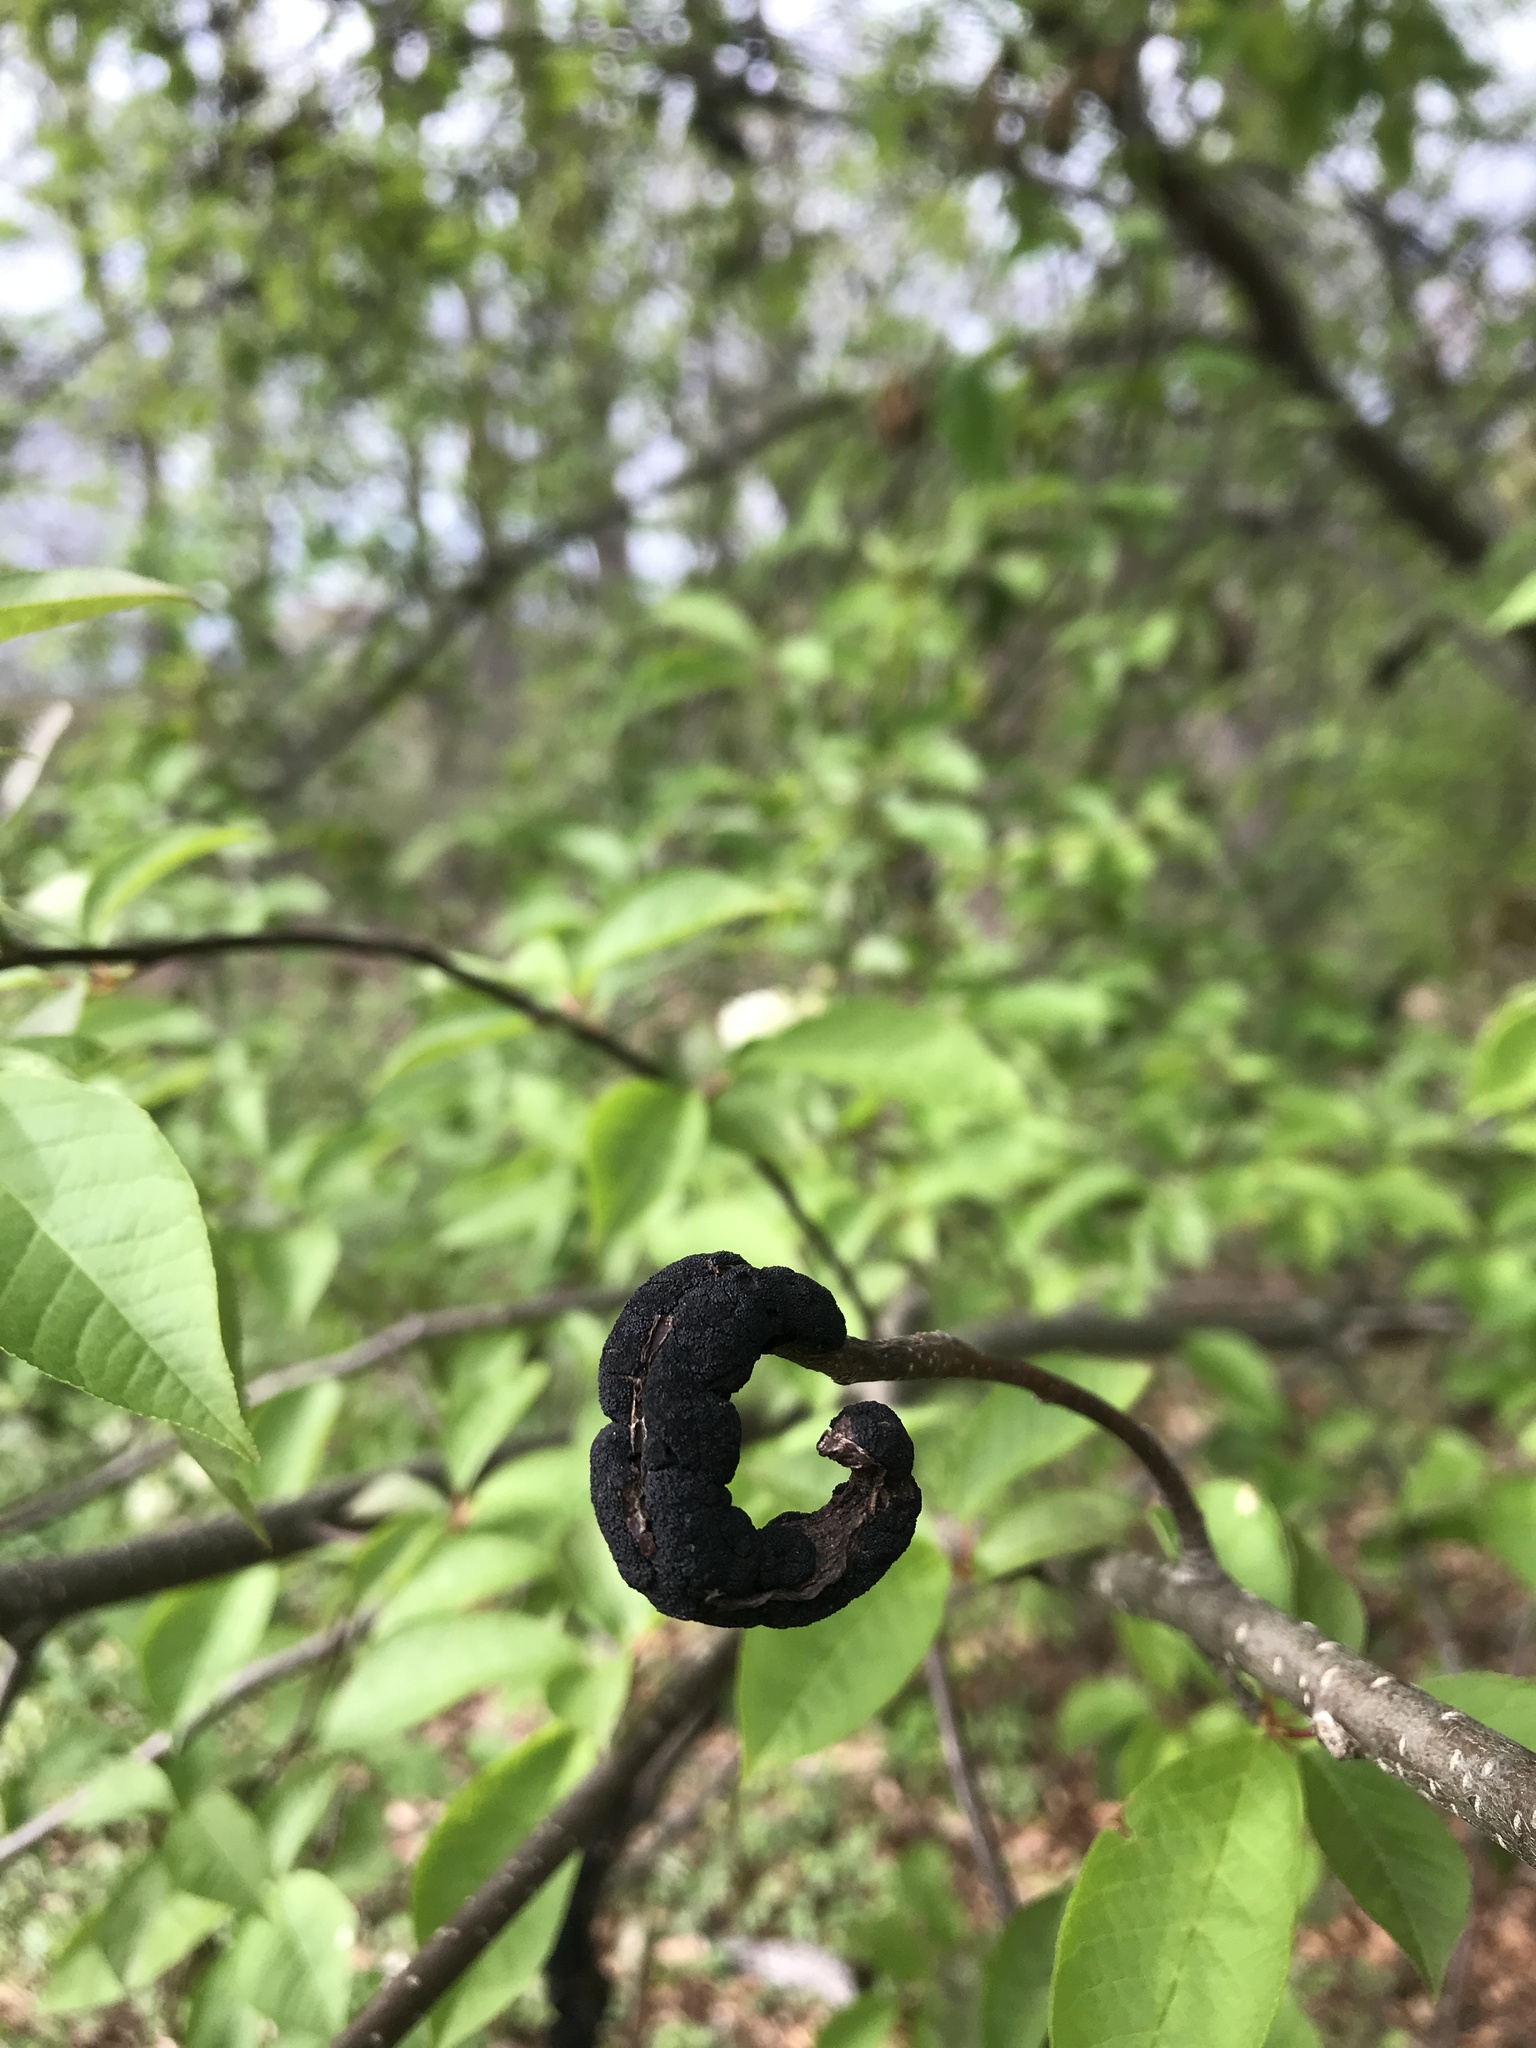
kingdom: Fungi
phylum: Ascomycota
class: Dothideomycetes
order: Venturiales
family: Venturiaceae
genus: Apiosporina
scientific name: Apiosporina morbosa
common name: Black knot
